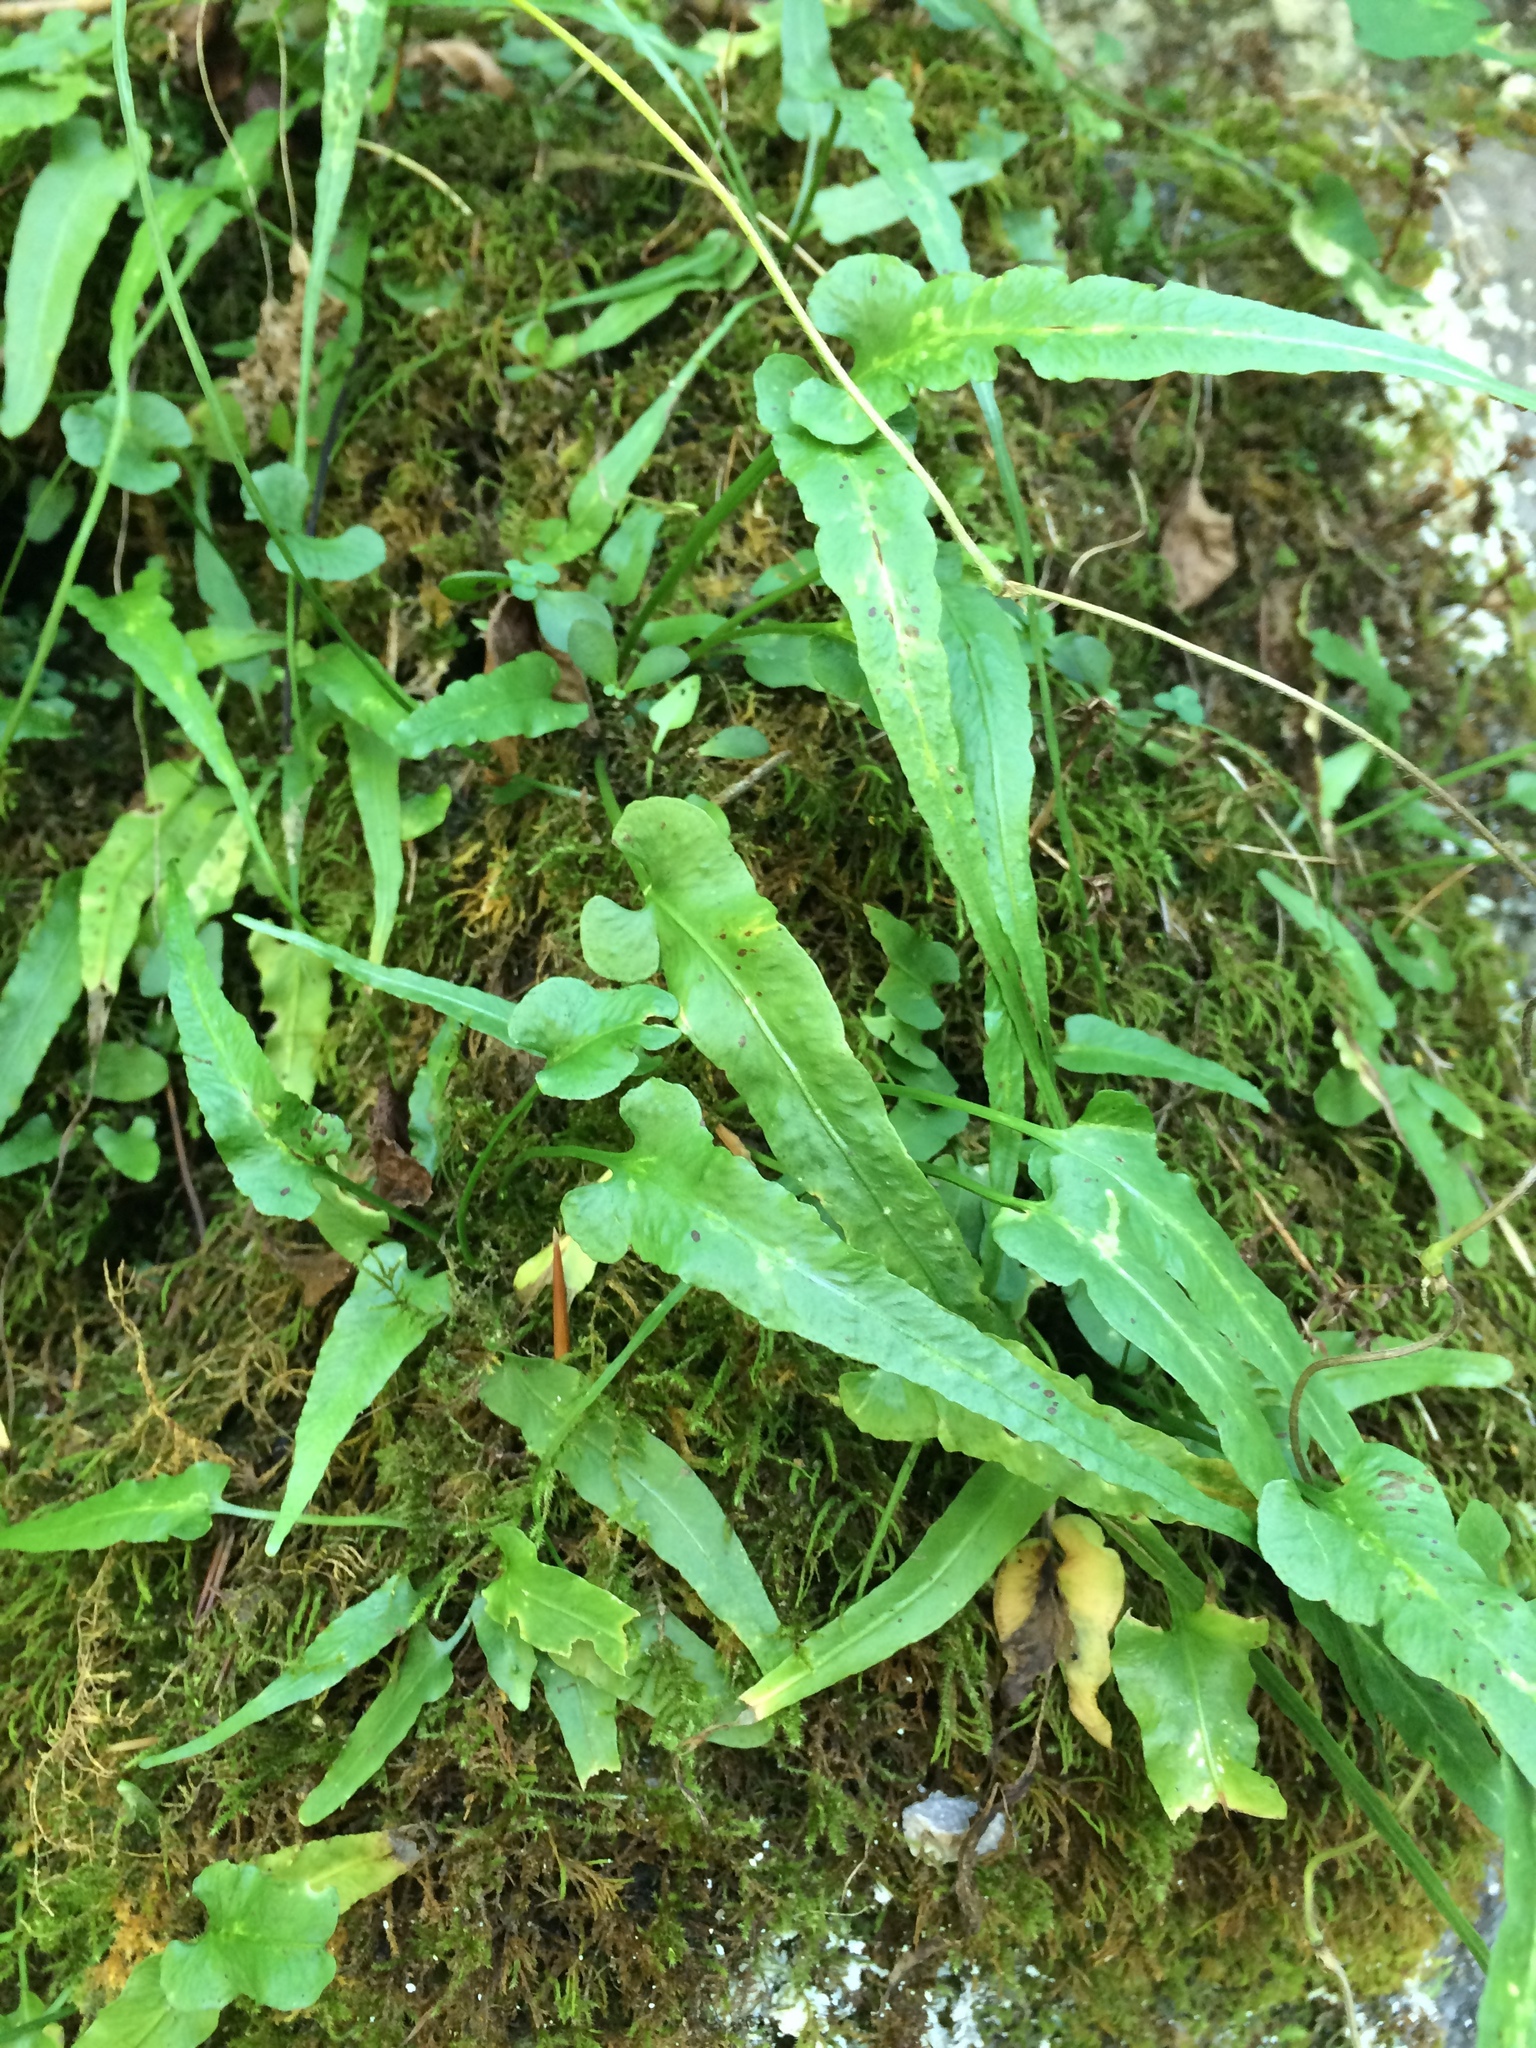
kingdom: Plantae
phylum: Tracheophyta
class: Polypodiopsida
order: Polypodiales
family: Aspleniaceae
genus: Asplenium
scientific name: Asplenium rhizophyllum
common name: Walking fern
